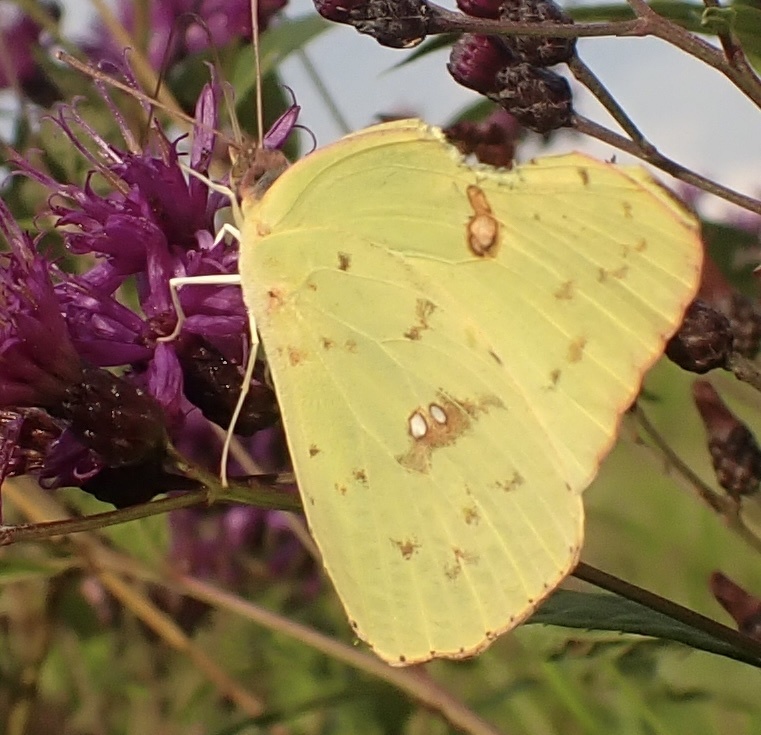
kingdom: Animalia
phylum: Arthropoda
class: Insecta
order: Lepidoptera
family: Pieridae
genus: Phoebis
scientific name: Phoebis sennae
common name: Cloudless sulphur
